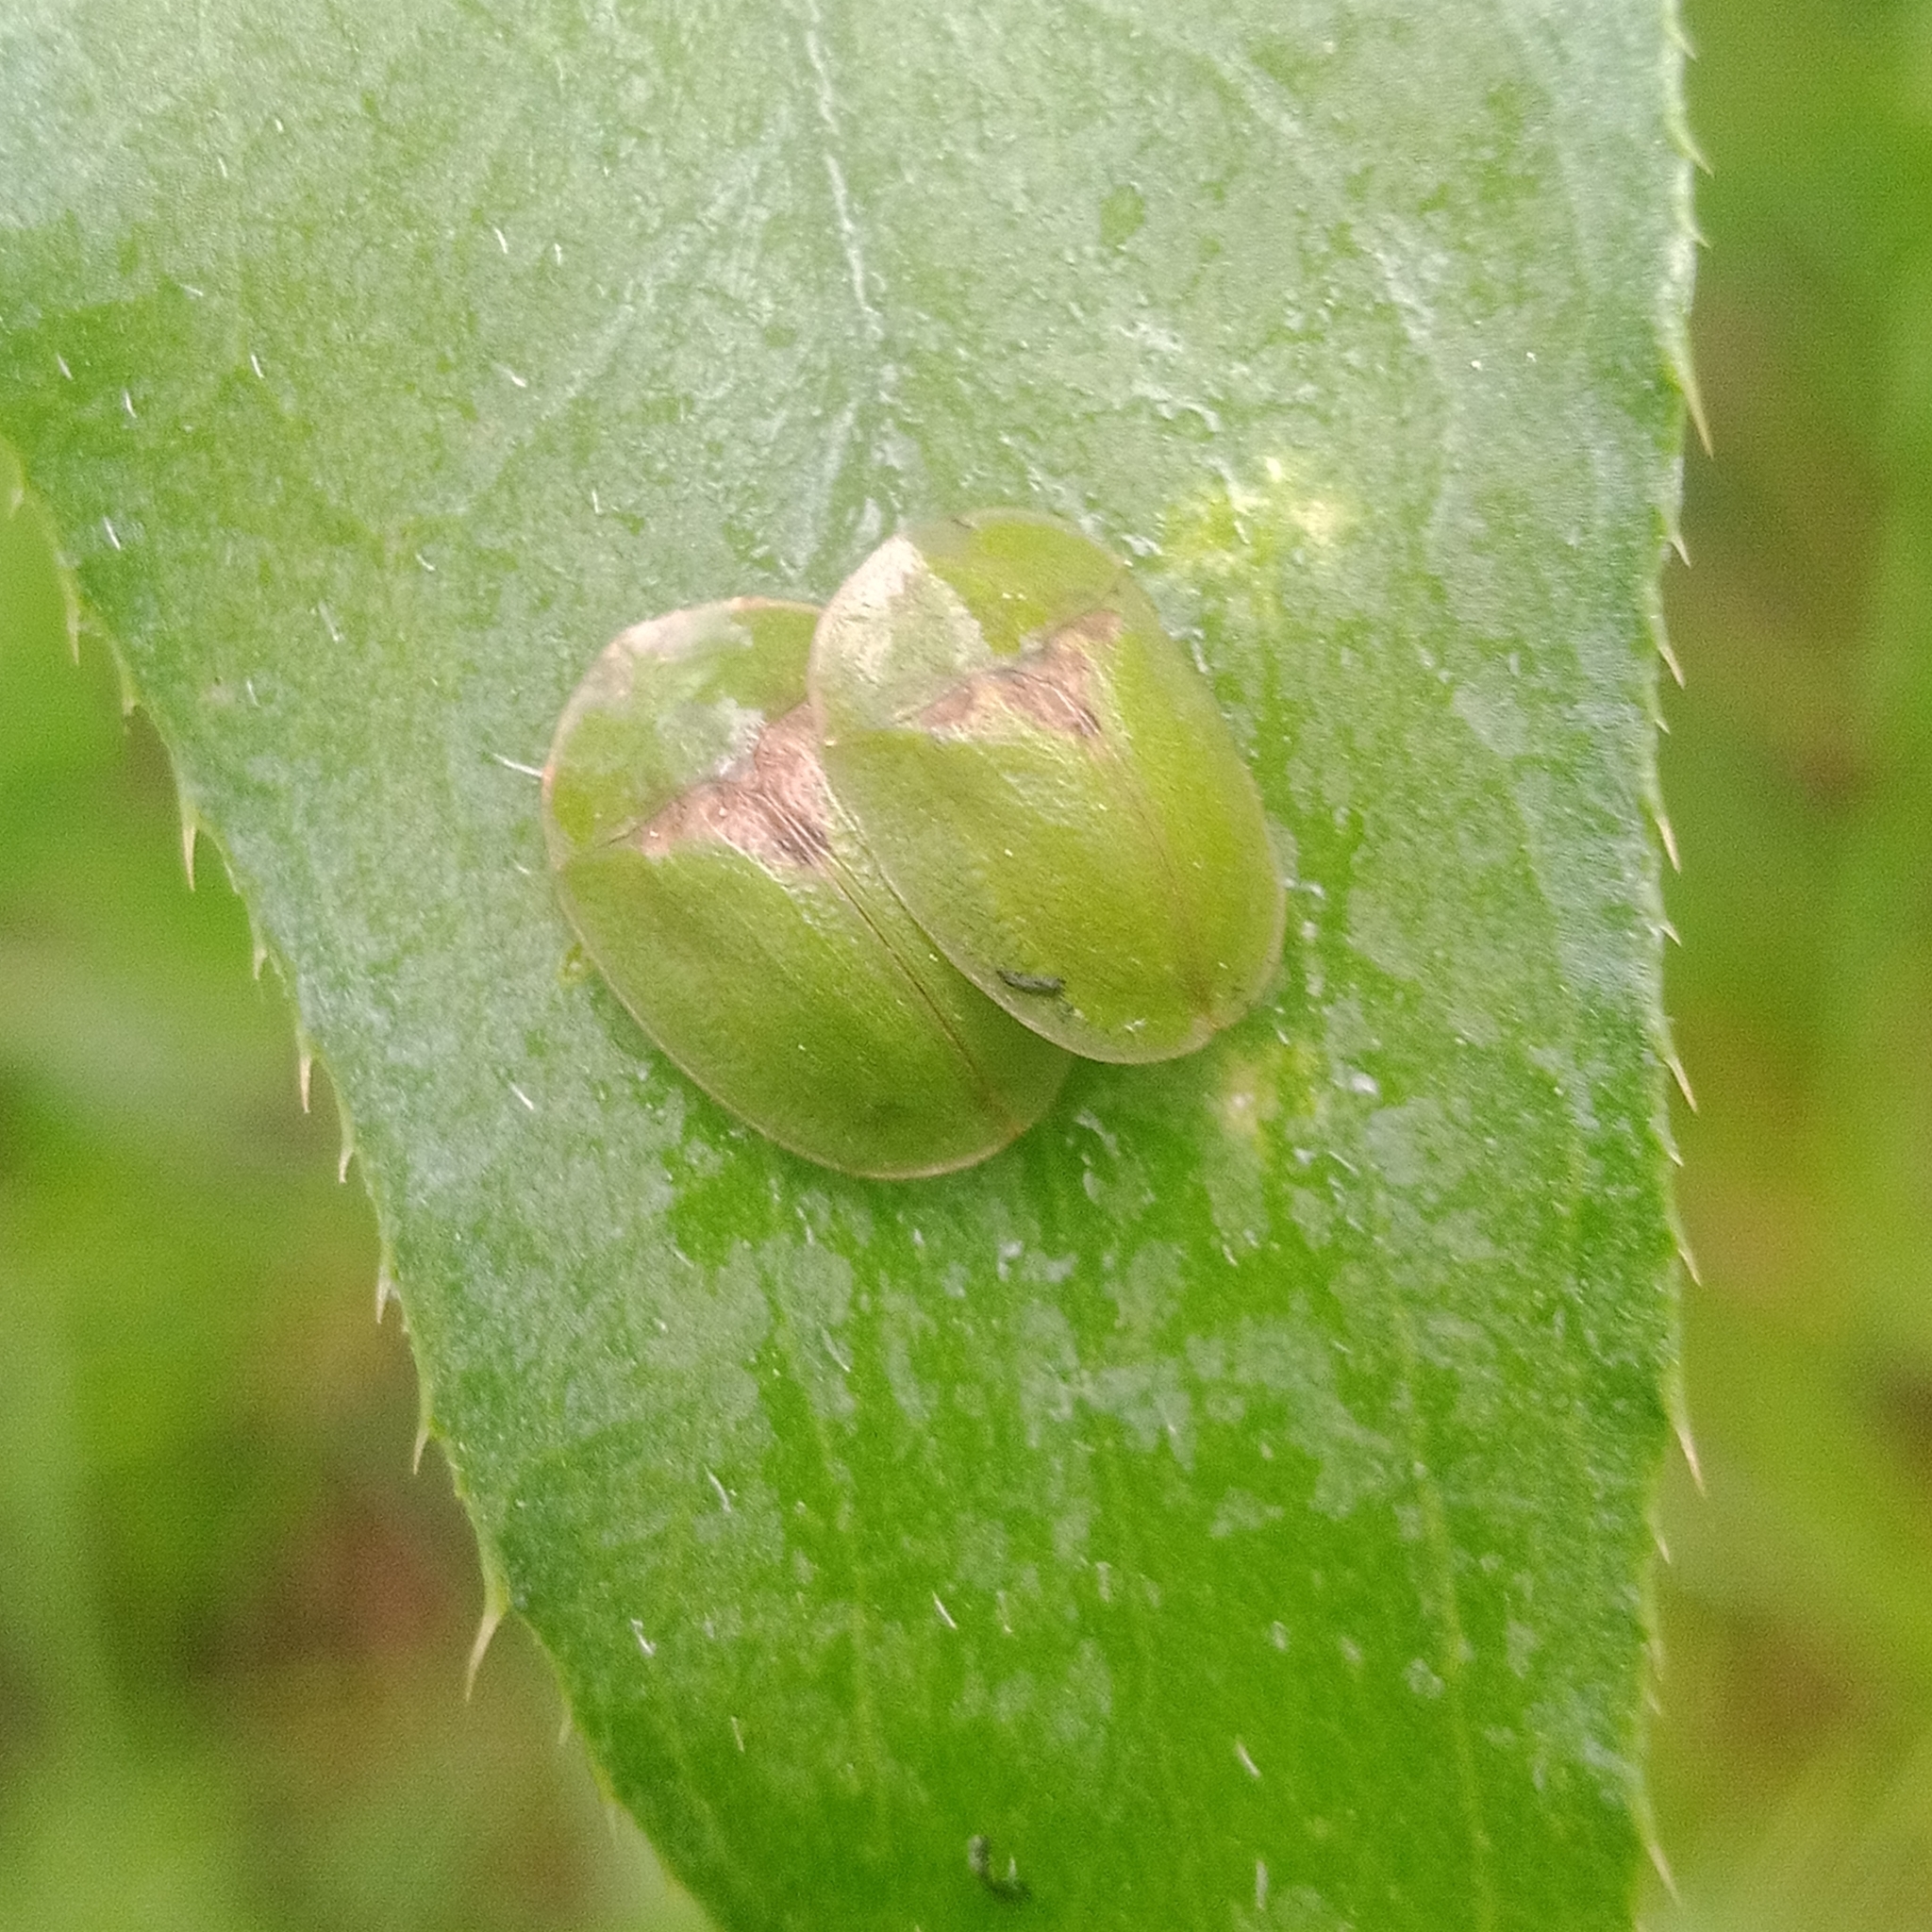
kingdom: Animalia
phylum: Arthropoda
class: Insecta
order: Coleoptera
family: Chrysomelidae
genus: Cassida
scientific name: Cassida rubiginosa
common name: Thistle tortoise beetle
